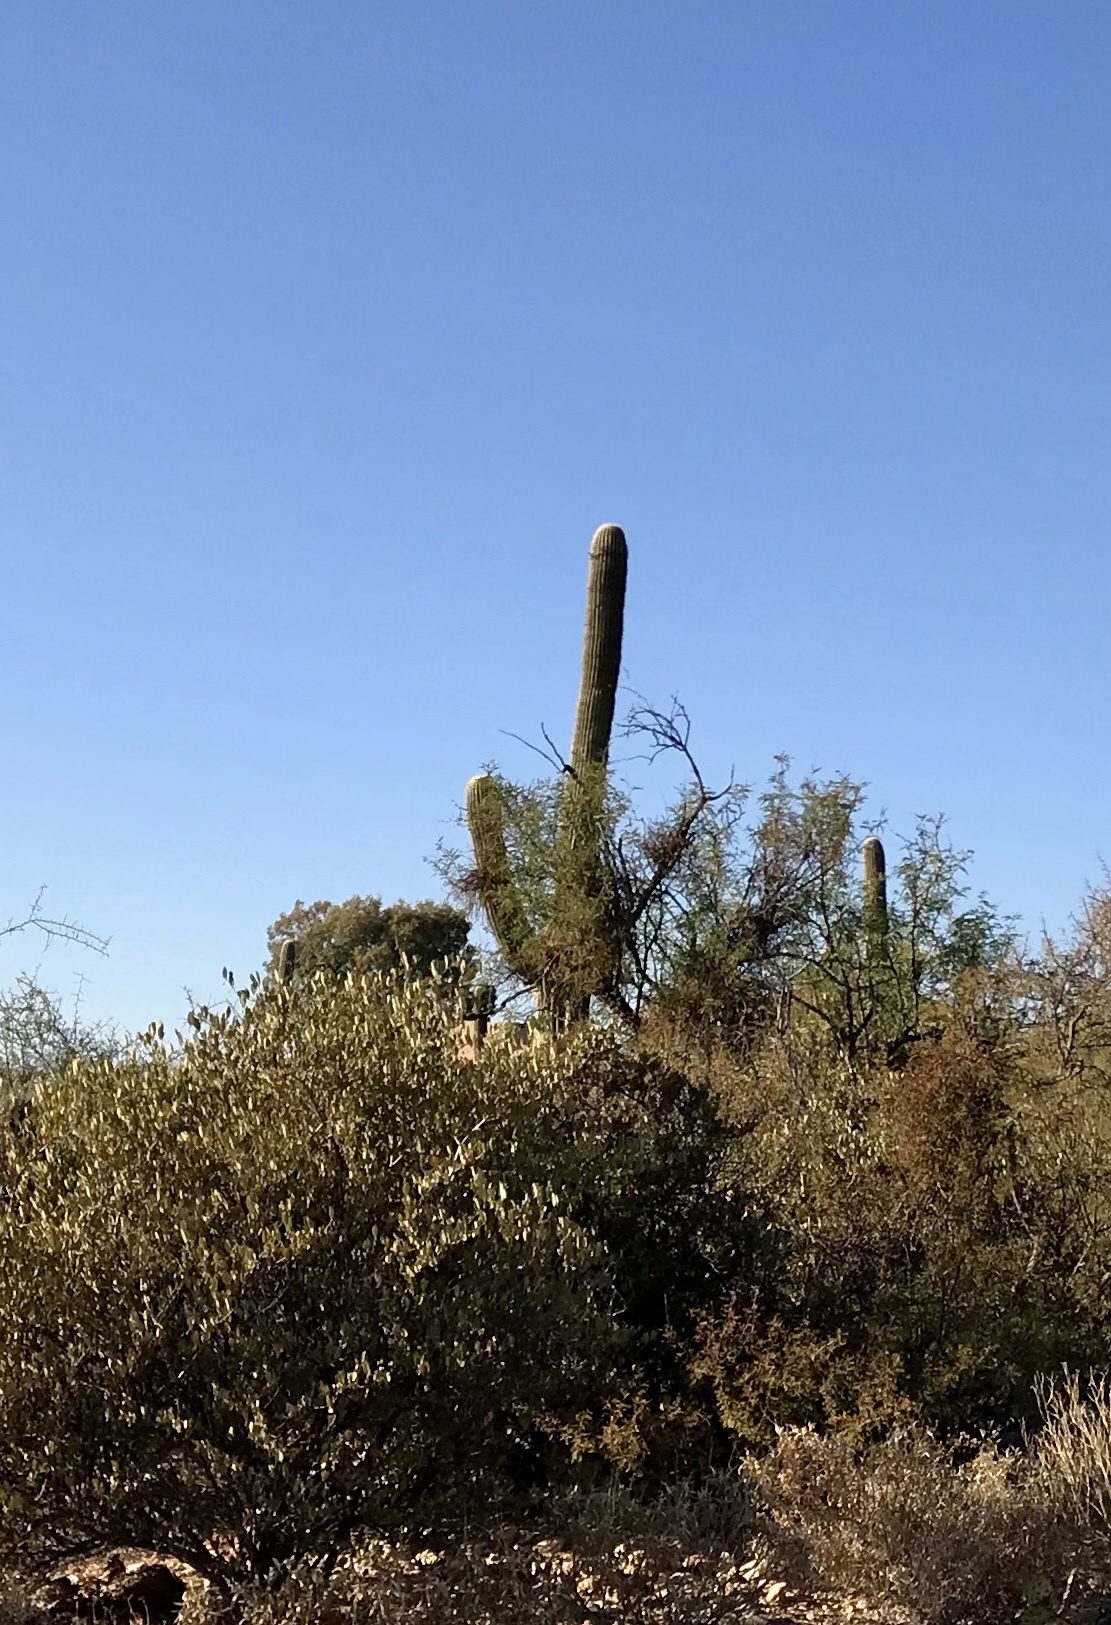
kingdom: Plantae
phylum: Tracheophyta
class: Magnoliopsida
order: Caryophyllales
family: Cactaceae
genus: Carnegiea
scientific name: Carnegiea gigantea
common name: Saguaro
